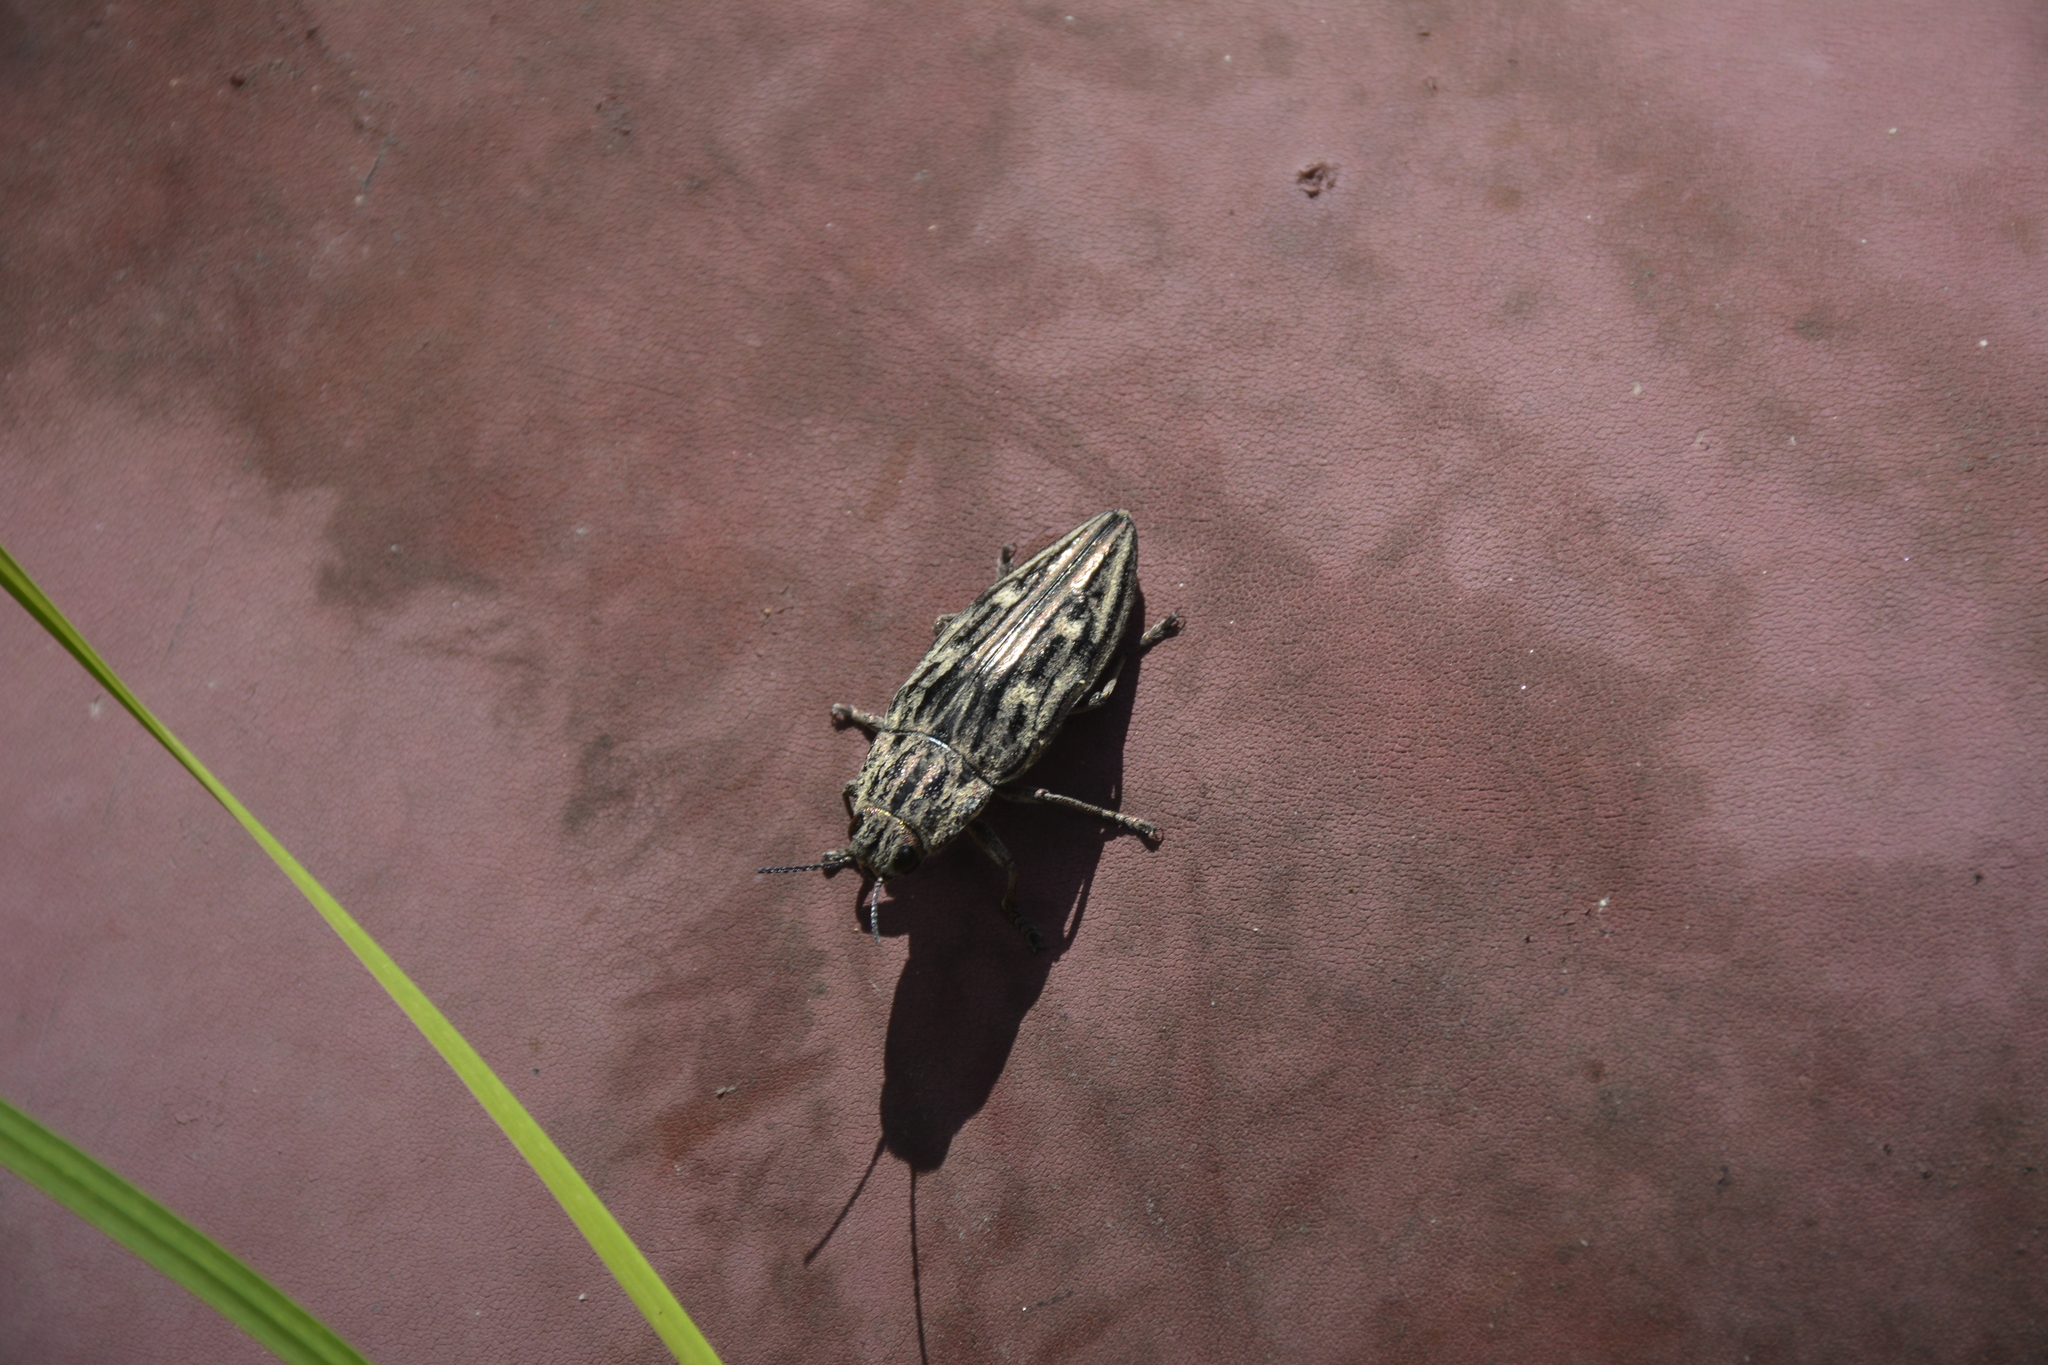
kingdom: Animalia
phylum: Arthropoda
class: Insecta
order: Coleoptera
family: Buprestidae
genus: Chalcophora
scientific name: Chalcophora mariana
